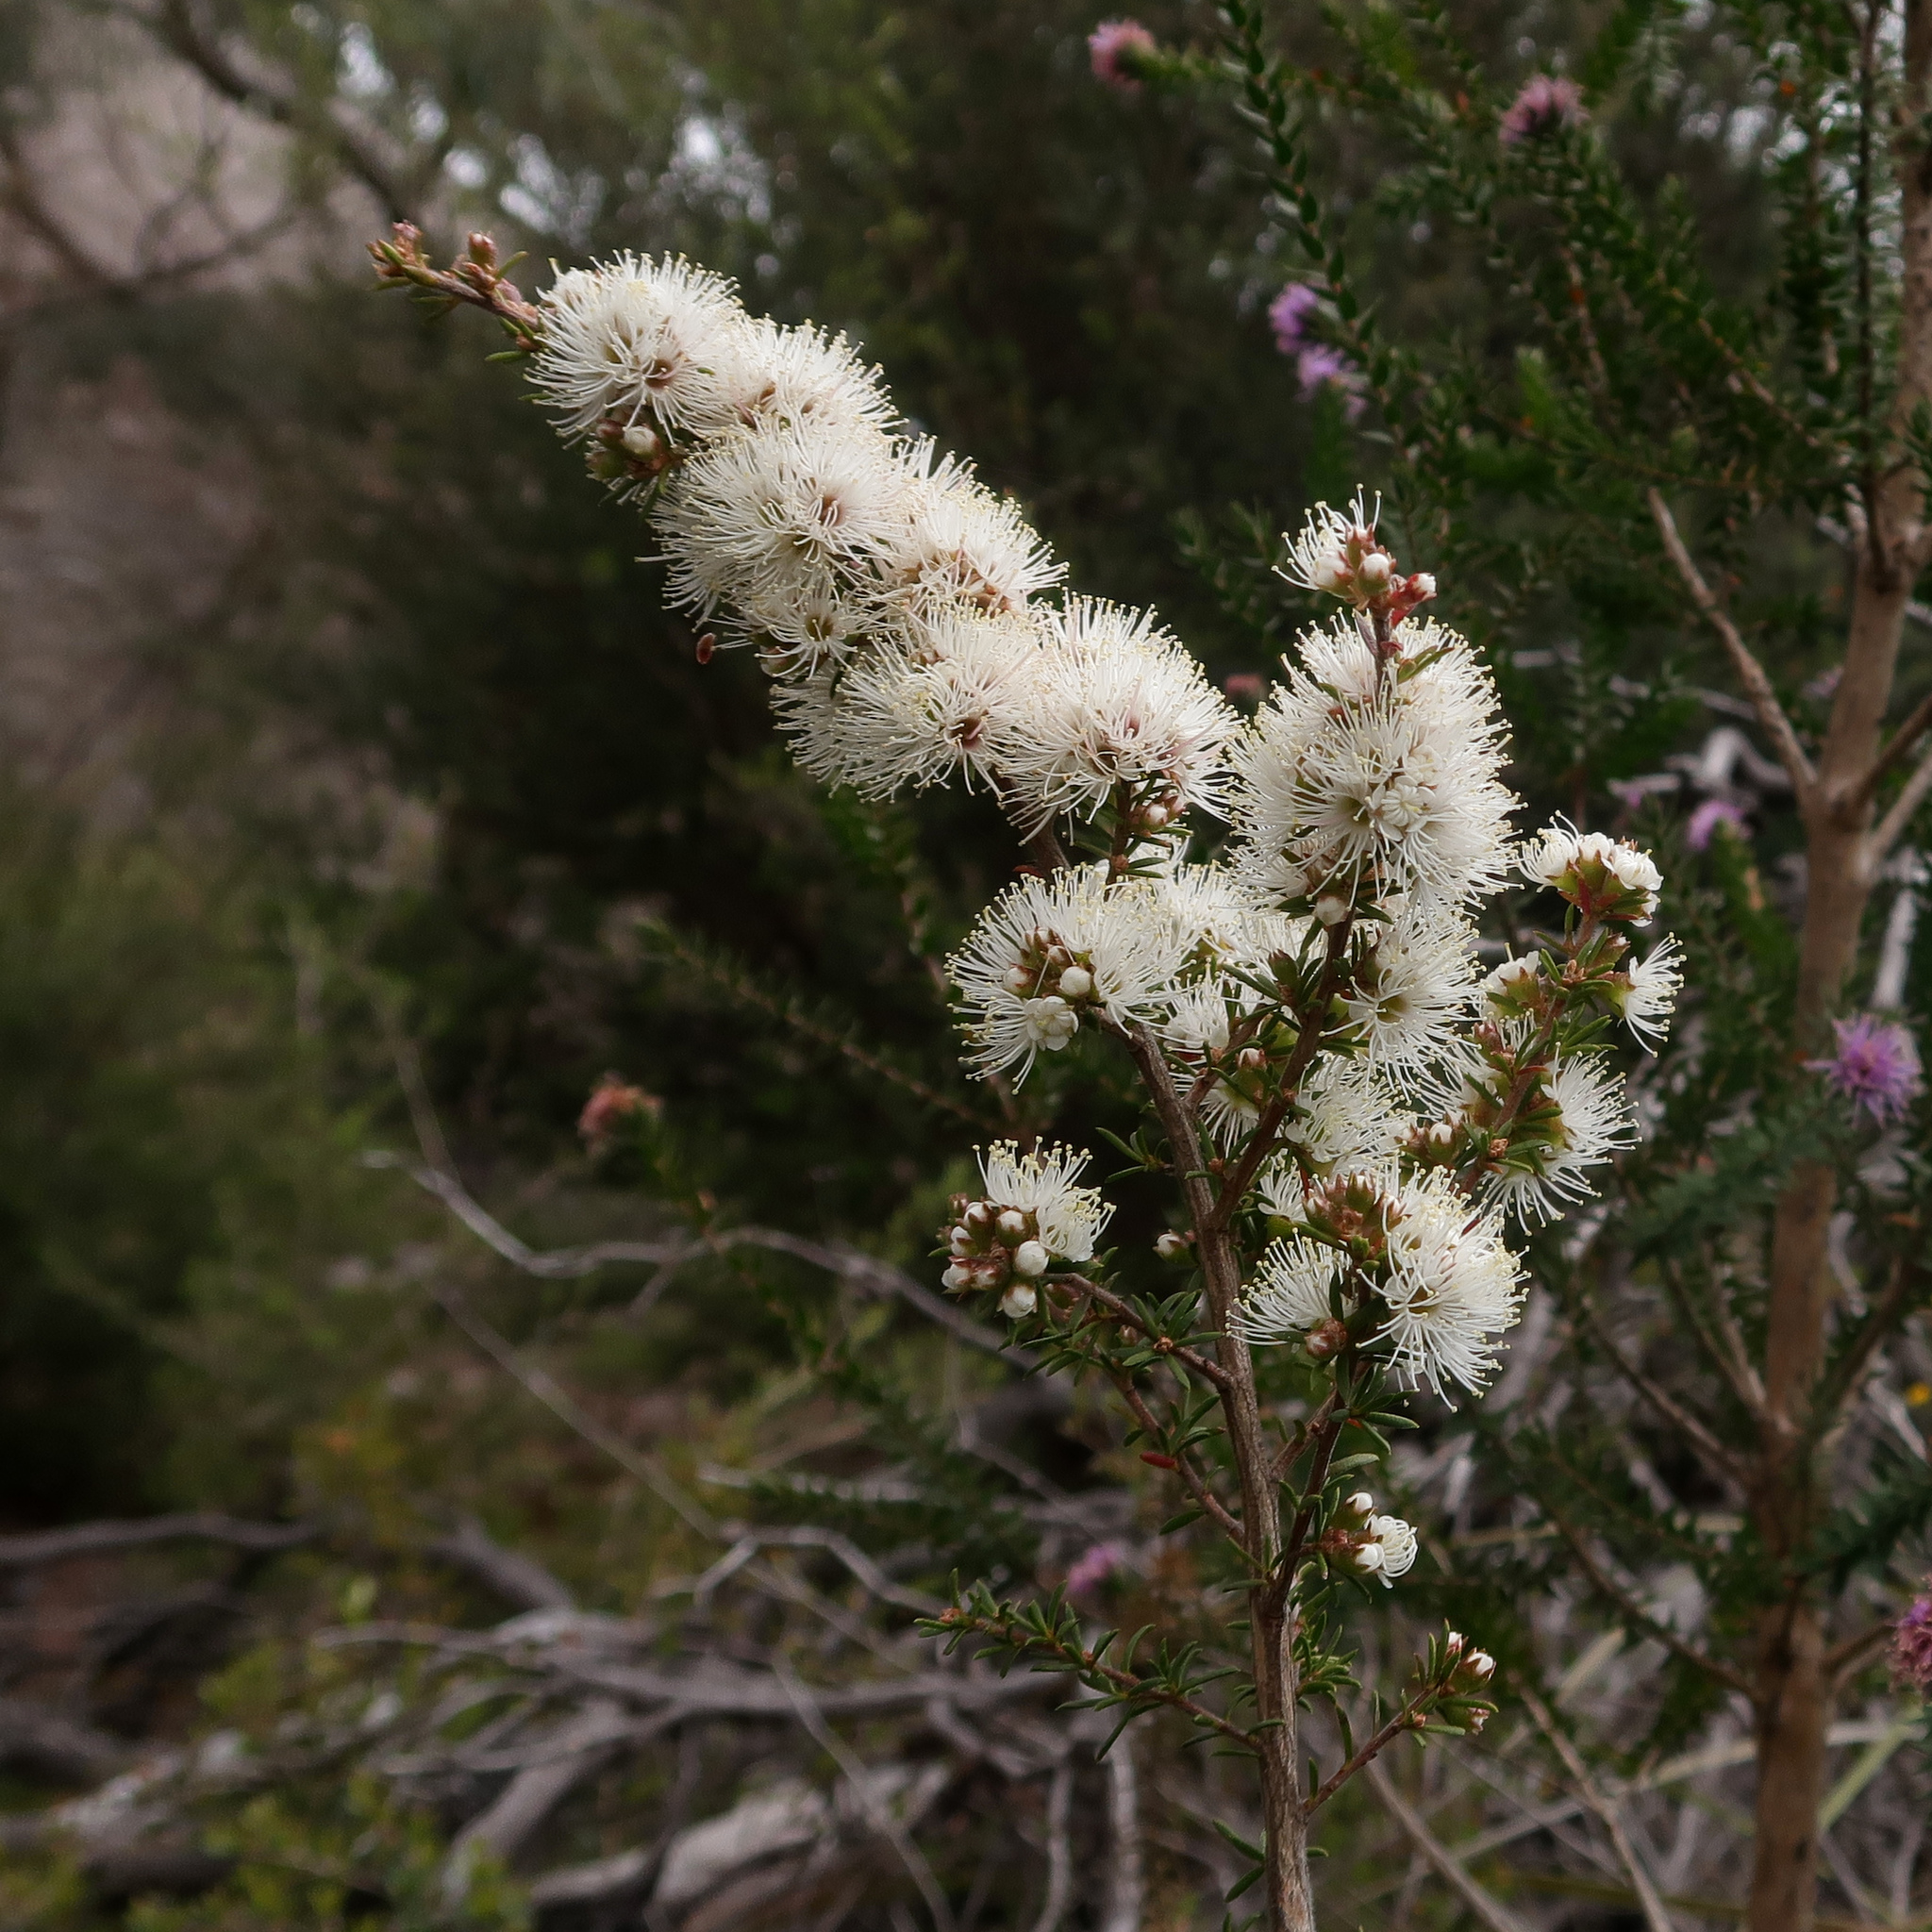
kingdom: Plantae
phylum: Tracheophyta
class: Magnoliopsida
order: Myrtales
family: Myrtaceae
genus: Kunzea
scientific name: Kunzea ambigua
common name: Tickbush
